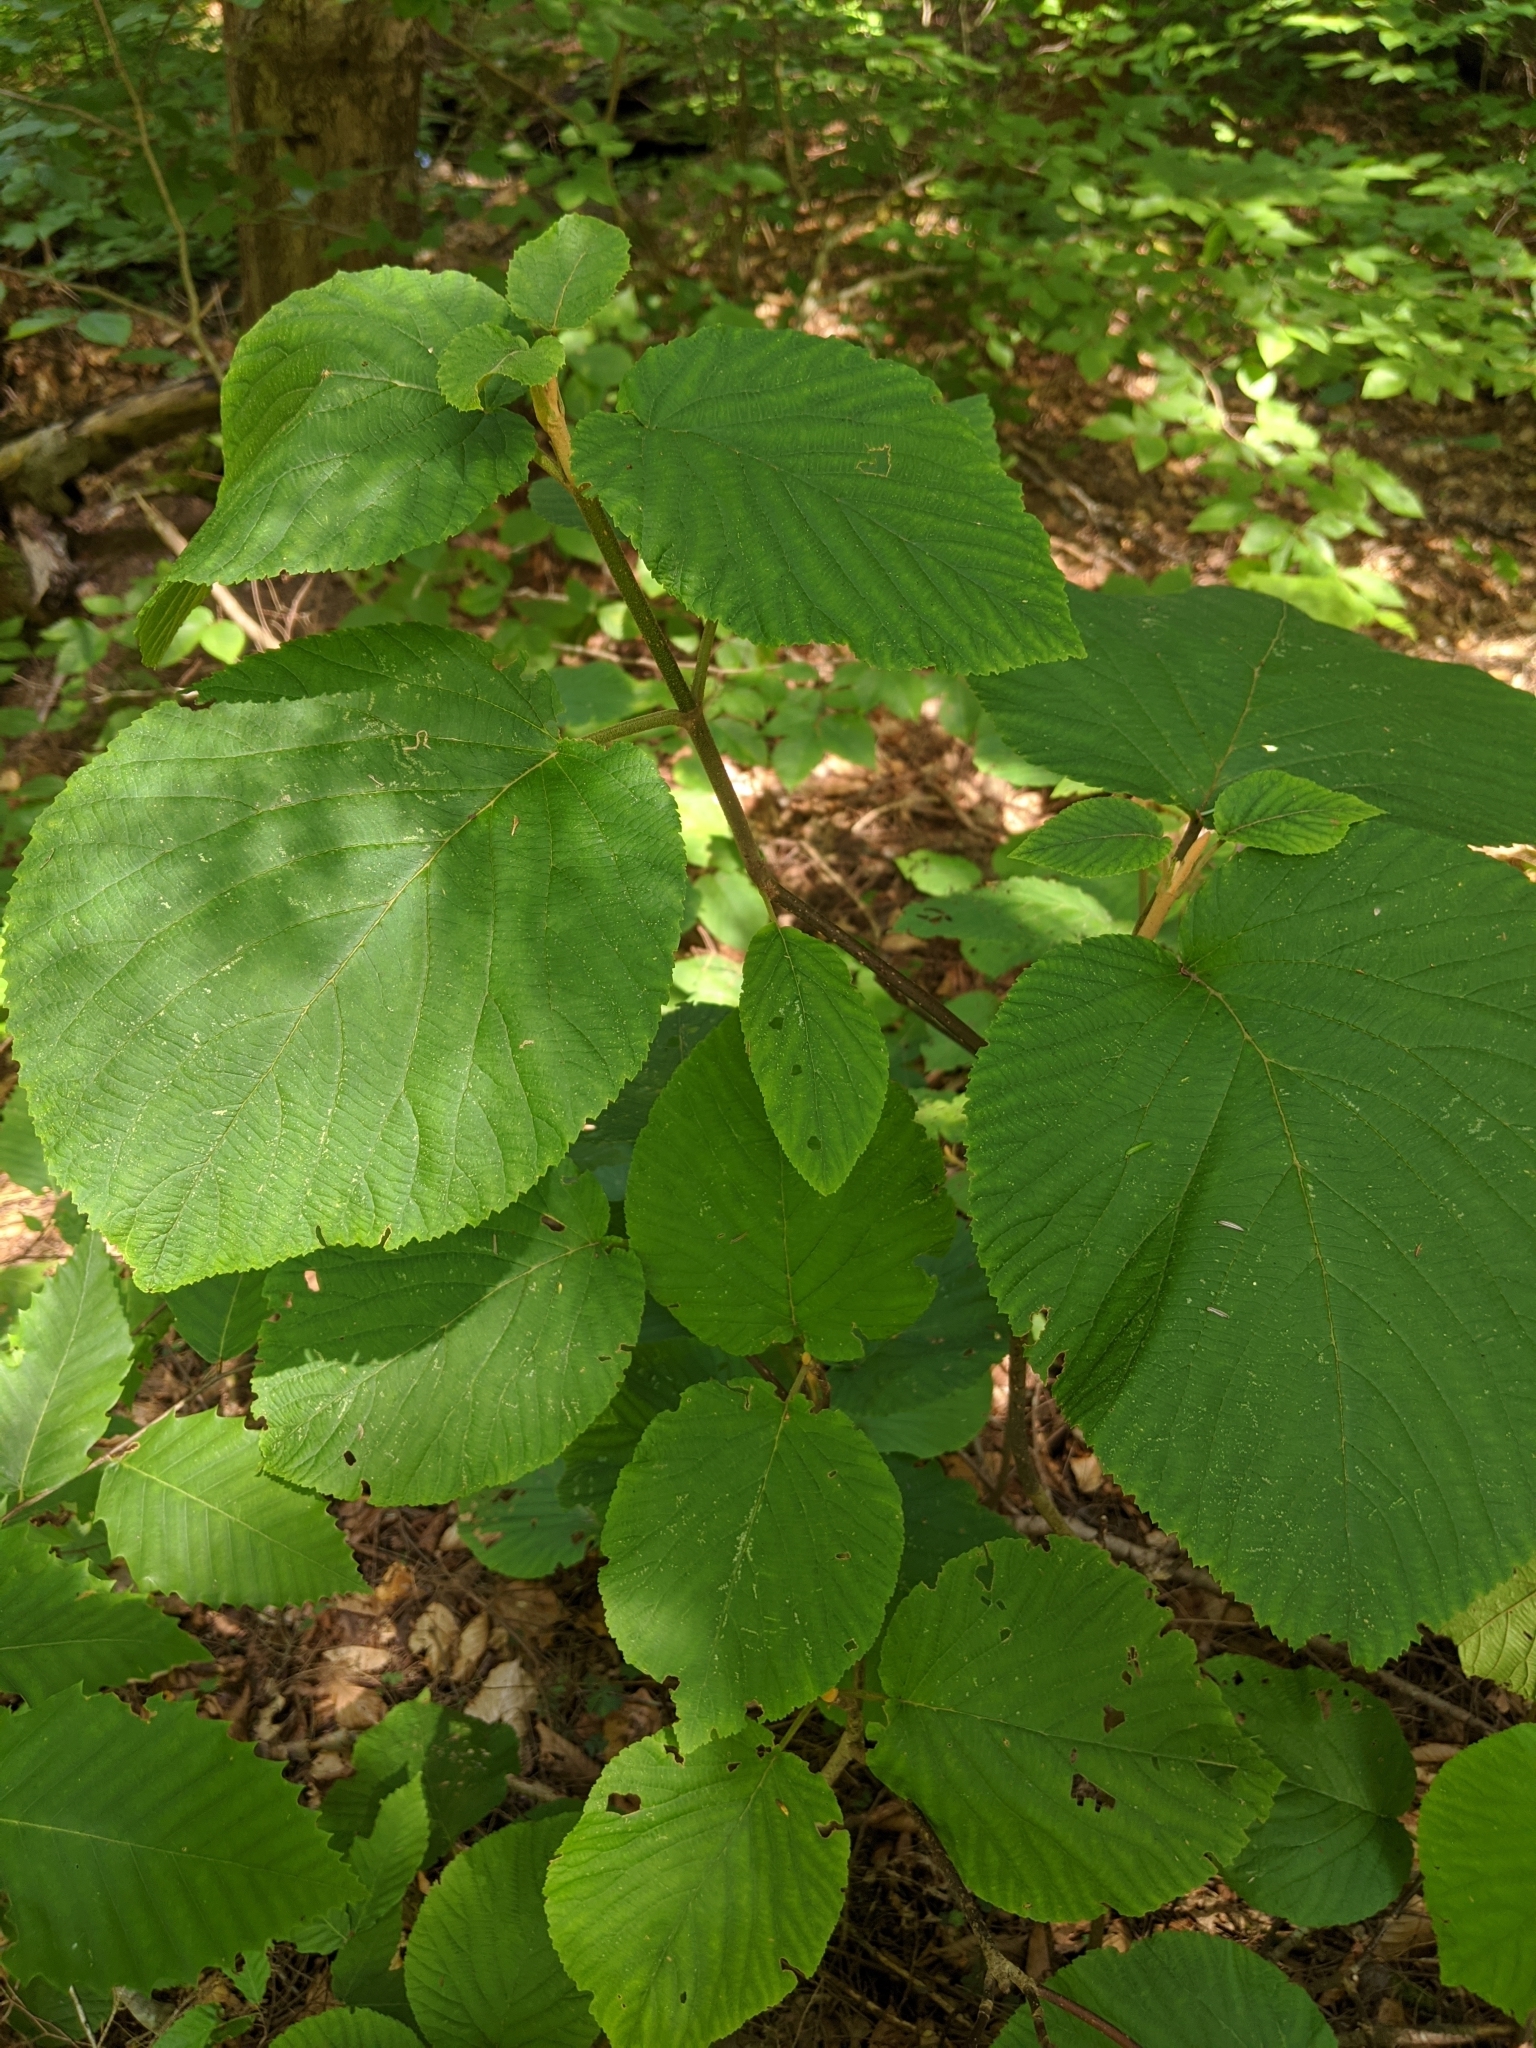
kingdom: Plantae
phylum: Tracheophyta
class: Magnoliopsida
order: Dipsacales
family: Viburnaceae
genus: Viburnum
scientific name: Viburnum lantanoides
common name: Hobblebush
